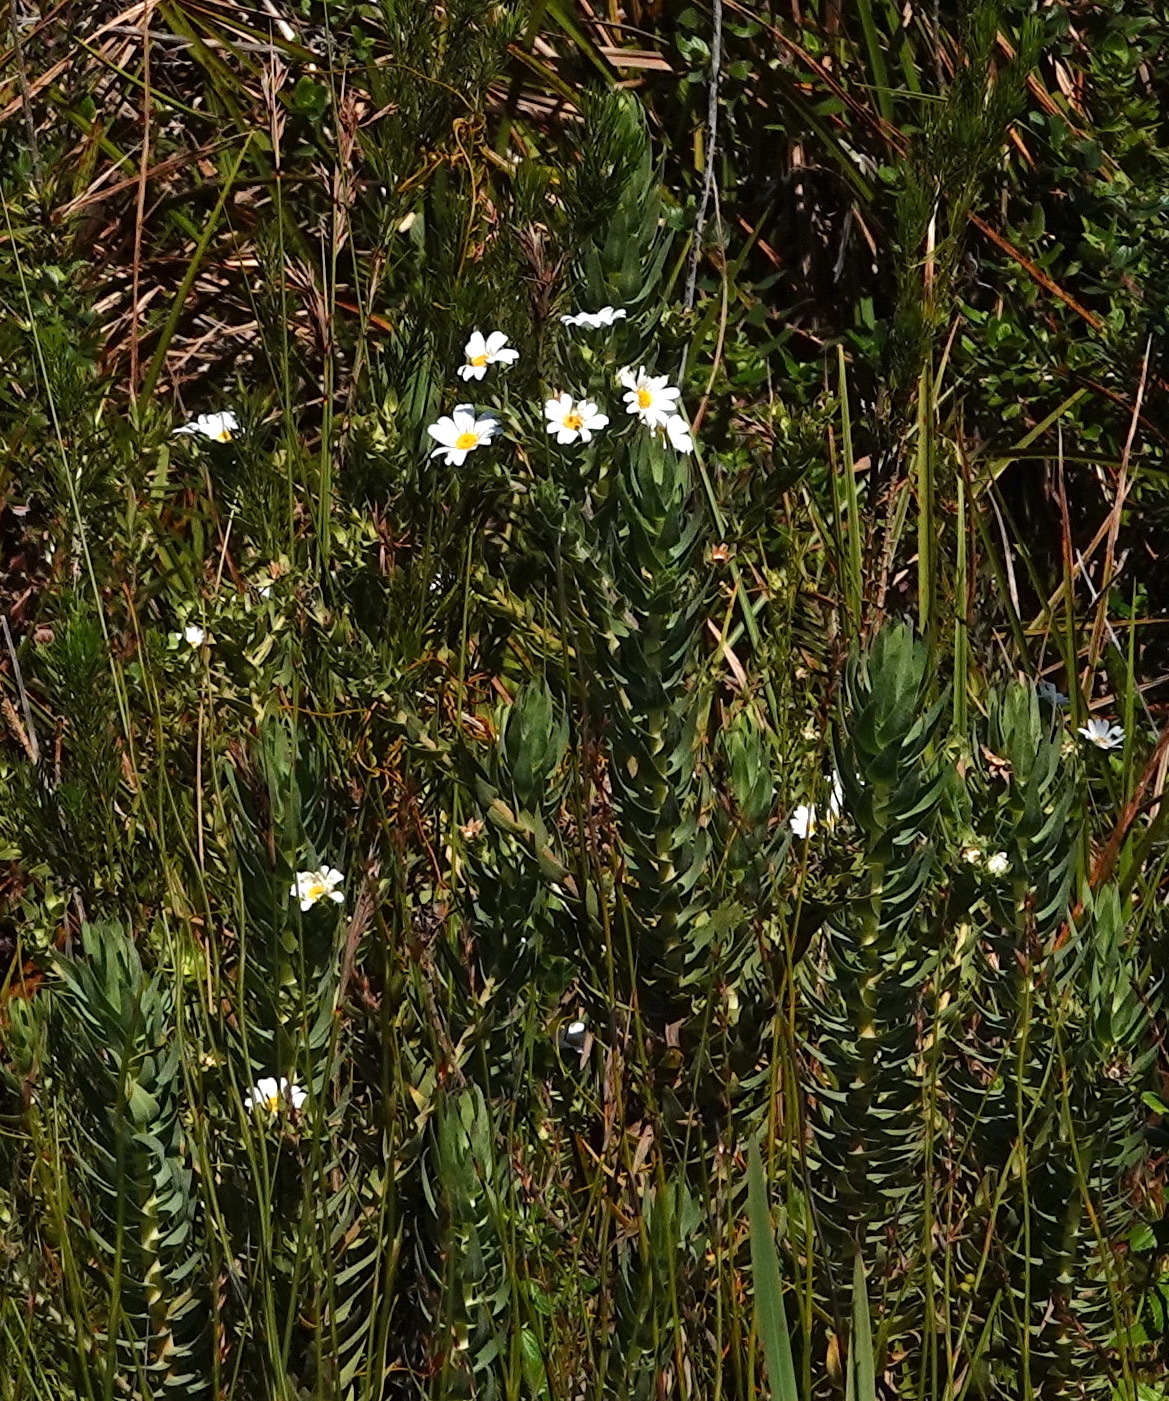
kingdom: Plantae
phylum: Tracheophyta
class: Magnoliopsida
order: Asterales
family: Asteraceae
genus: Osmitopsis
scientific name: Osmitopsis asteriscoides
